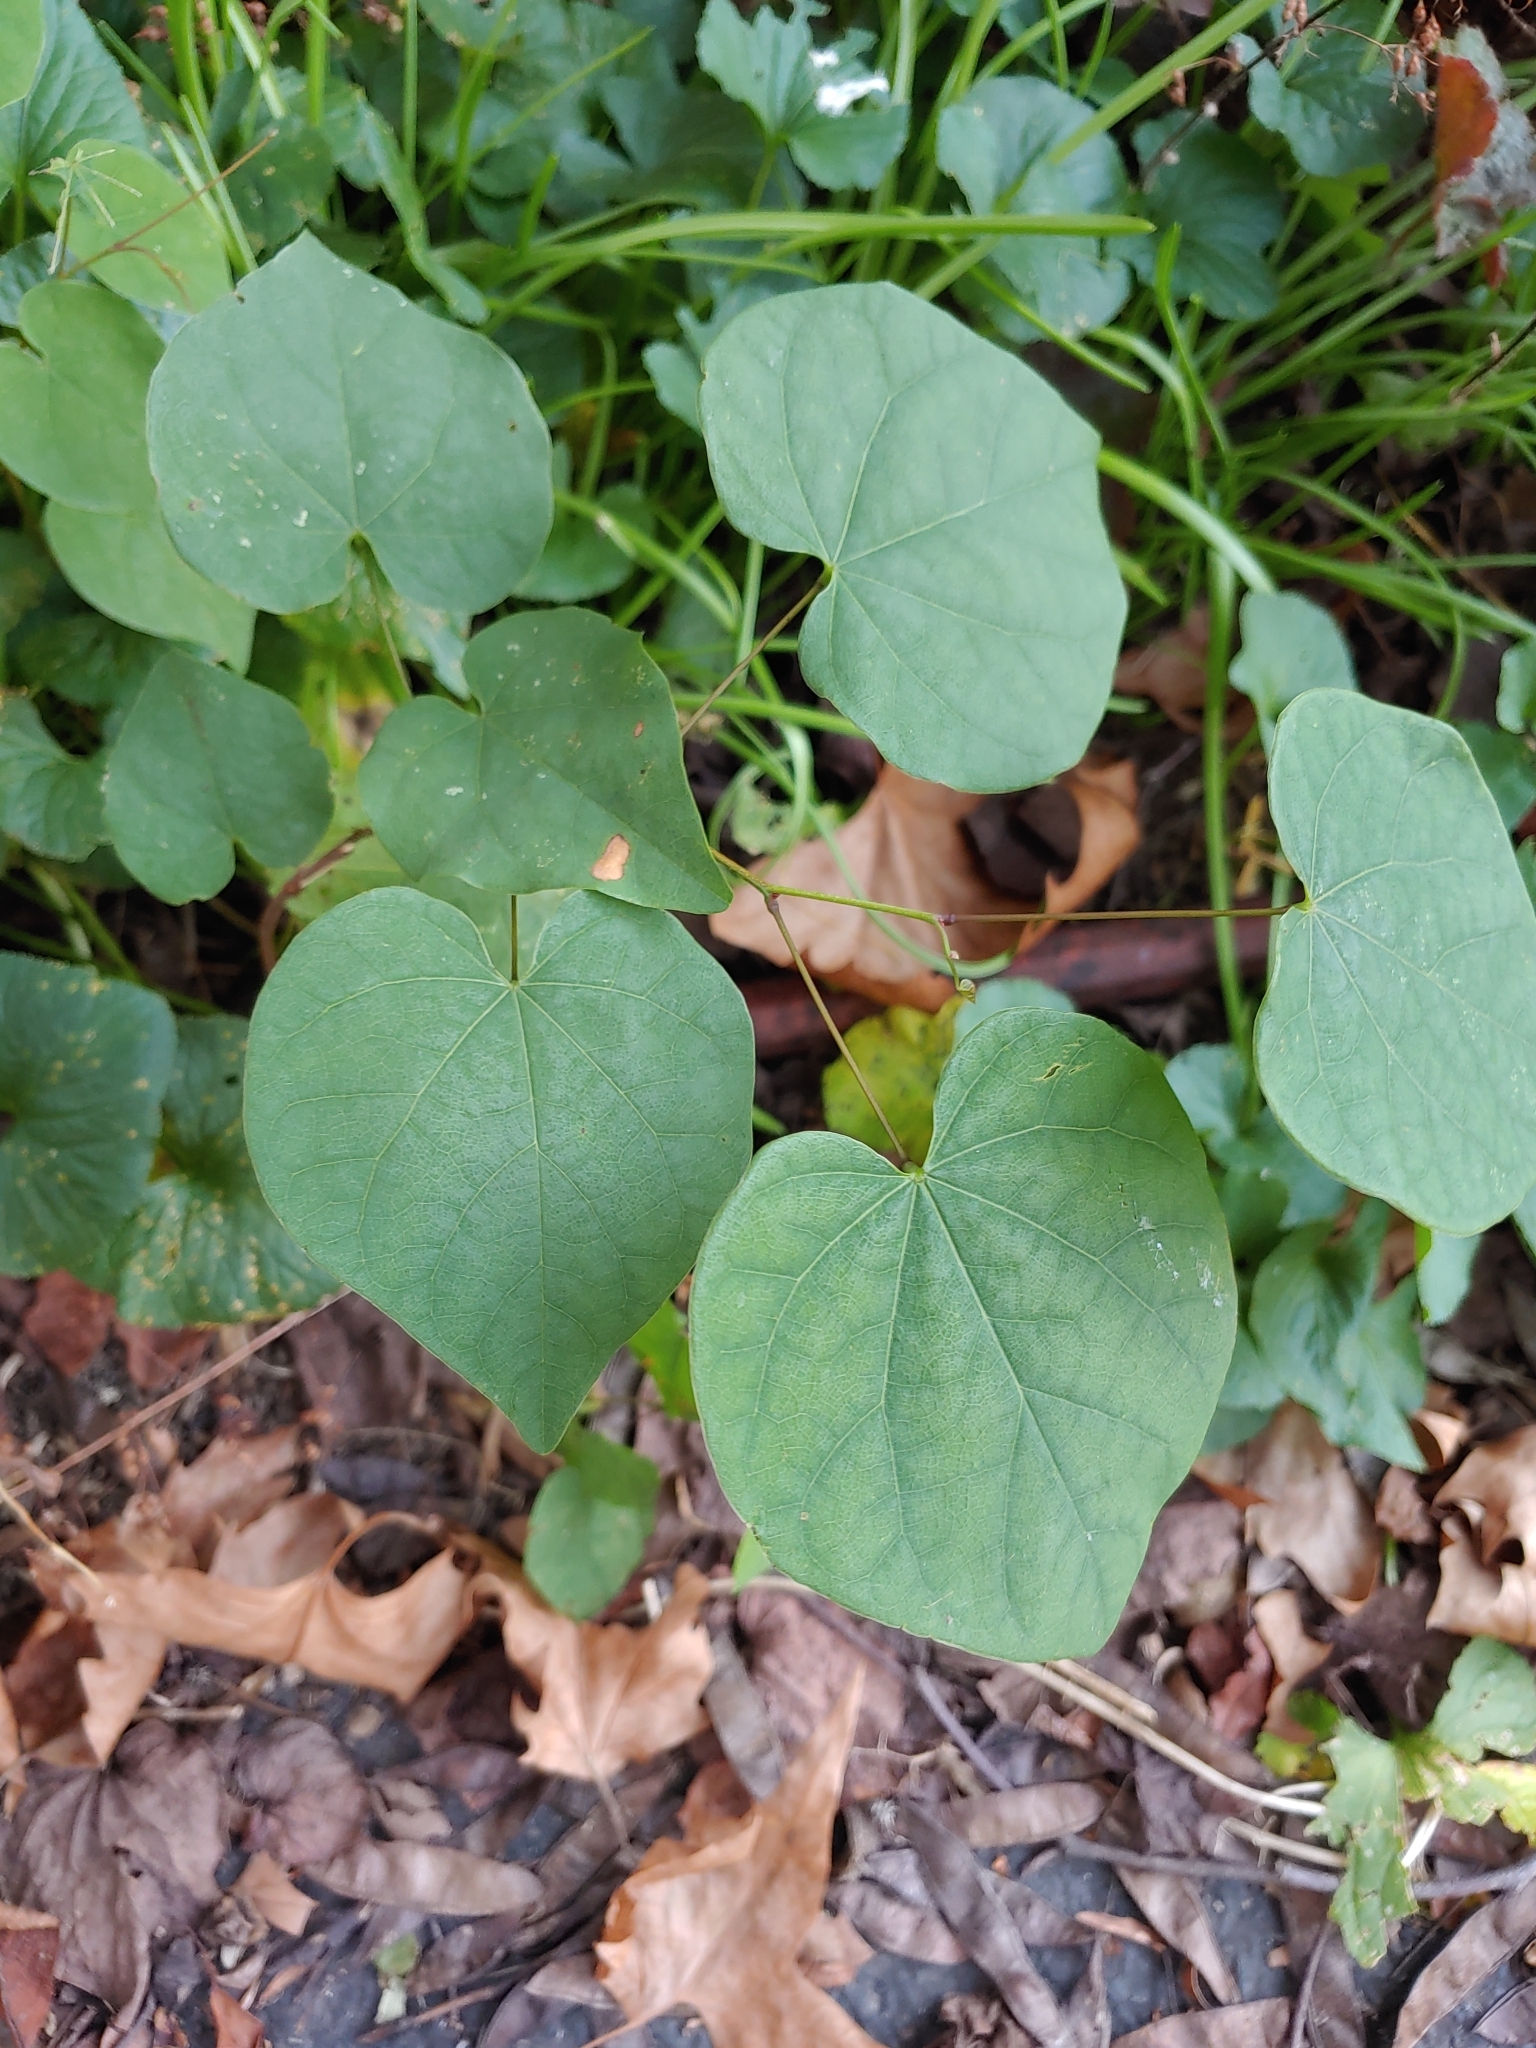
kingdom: Plantae
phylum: Tracheophyta
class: Magnoliopsida
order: Fabales
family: Fabaceae
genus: Cercis
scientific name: Cercis canadensis
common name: Eastern redbud
